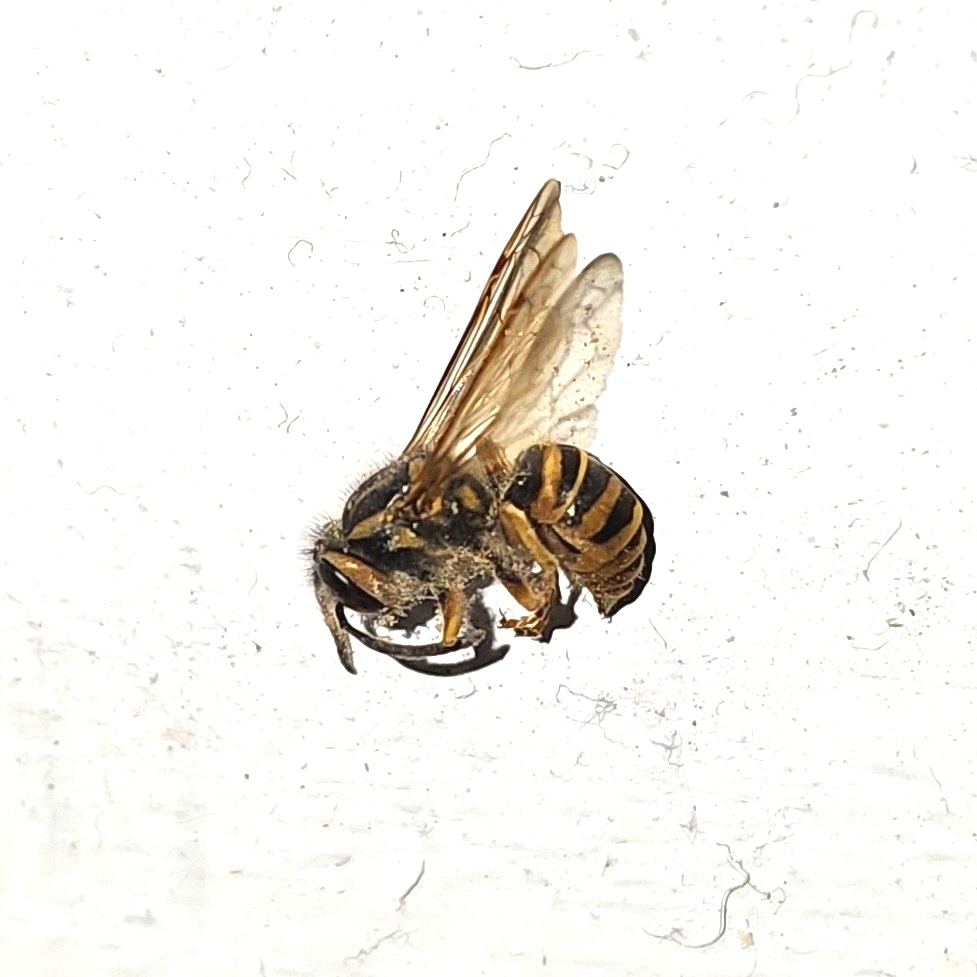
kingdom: Animalia
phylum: Arthropoda
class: Insecta
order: Hymenoptera
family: Vespidae
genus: Vespula
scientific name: Vespula squamosa
